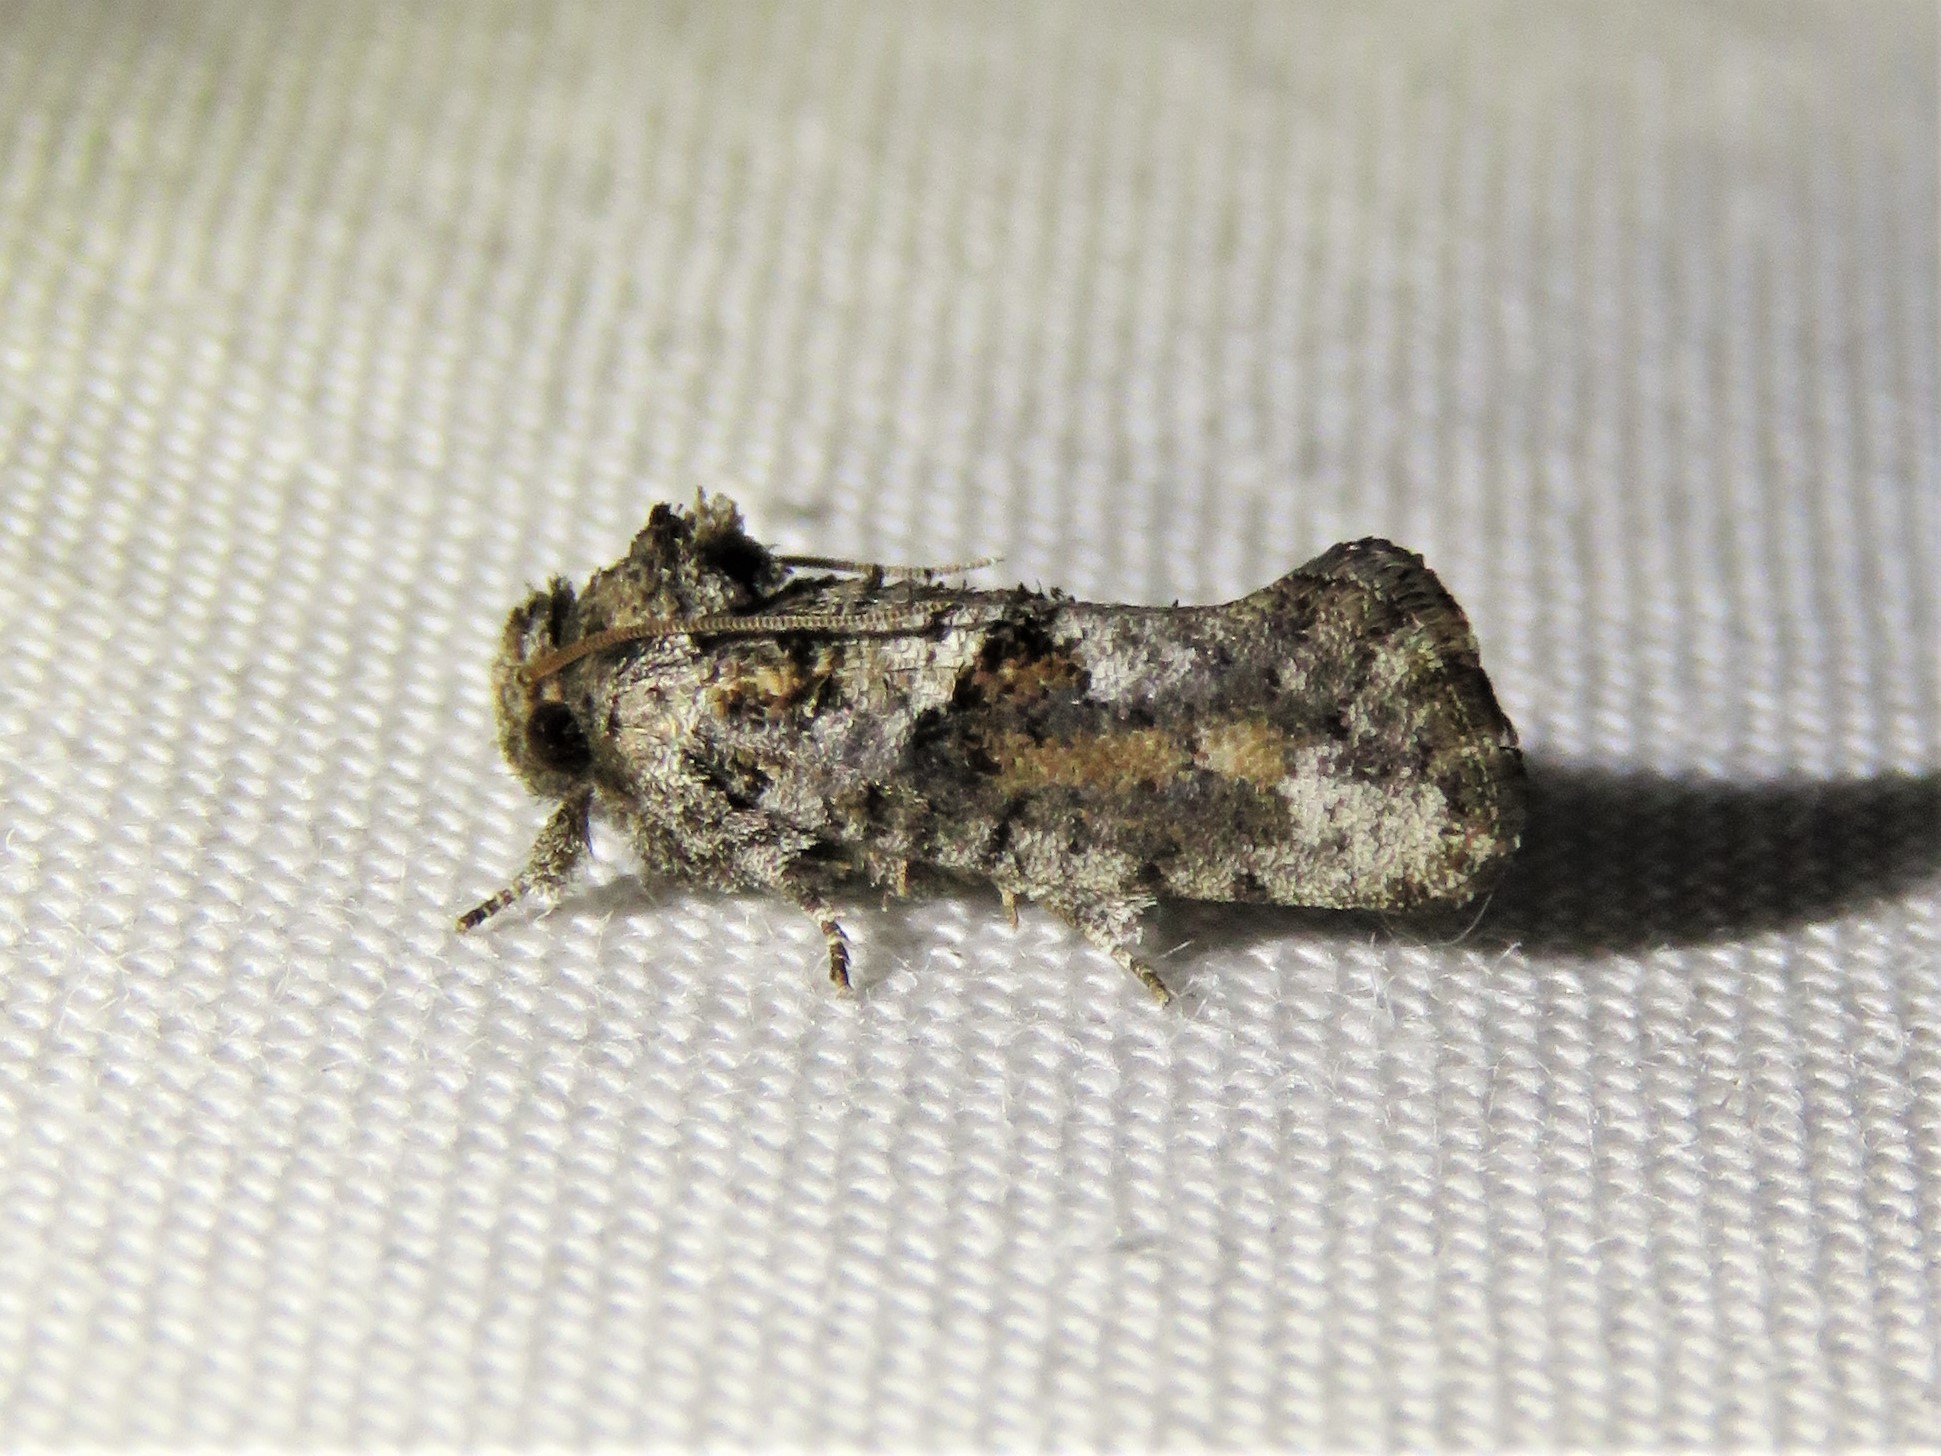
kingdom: Animalia
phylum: Arthropoda
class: Insecta
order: Lepidoptera
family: Tineidae
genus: Acrolophus
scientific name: Acrolophus piger
